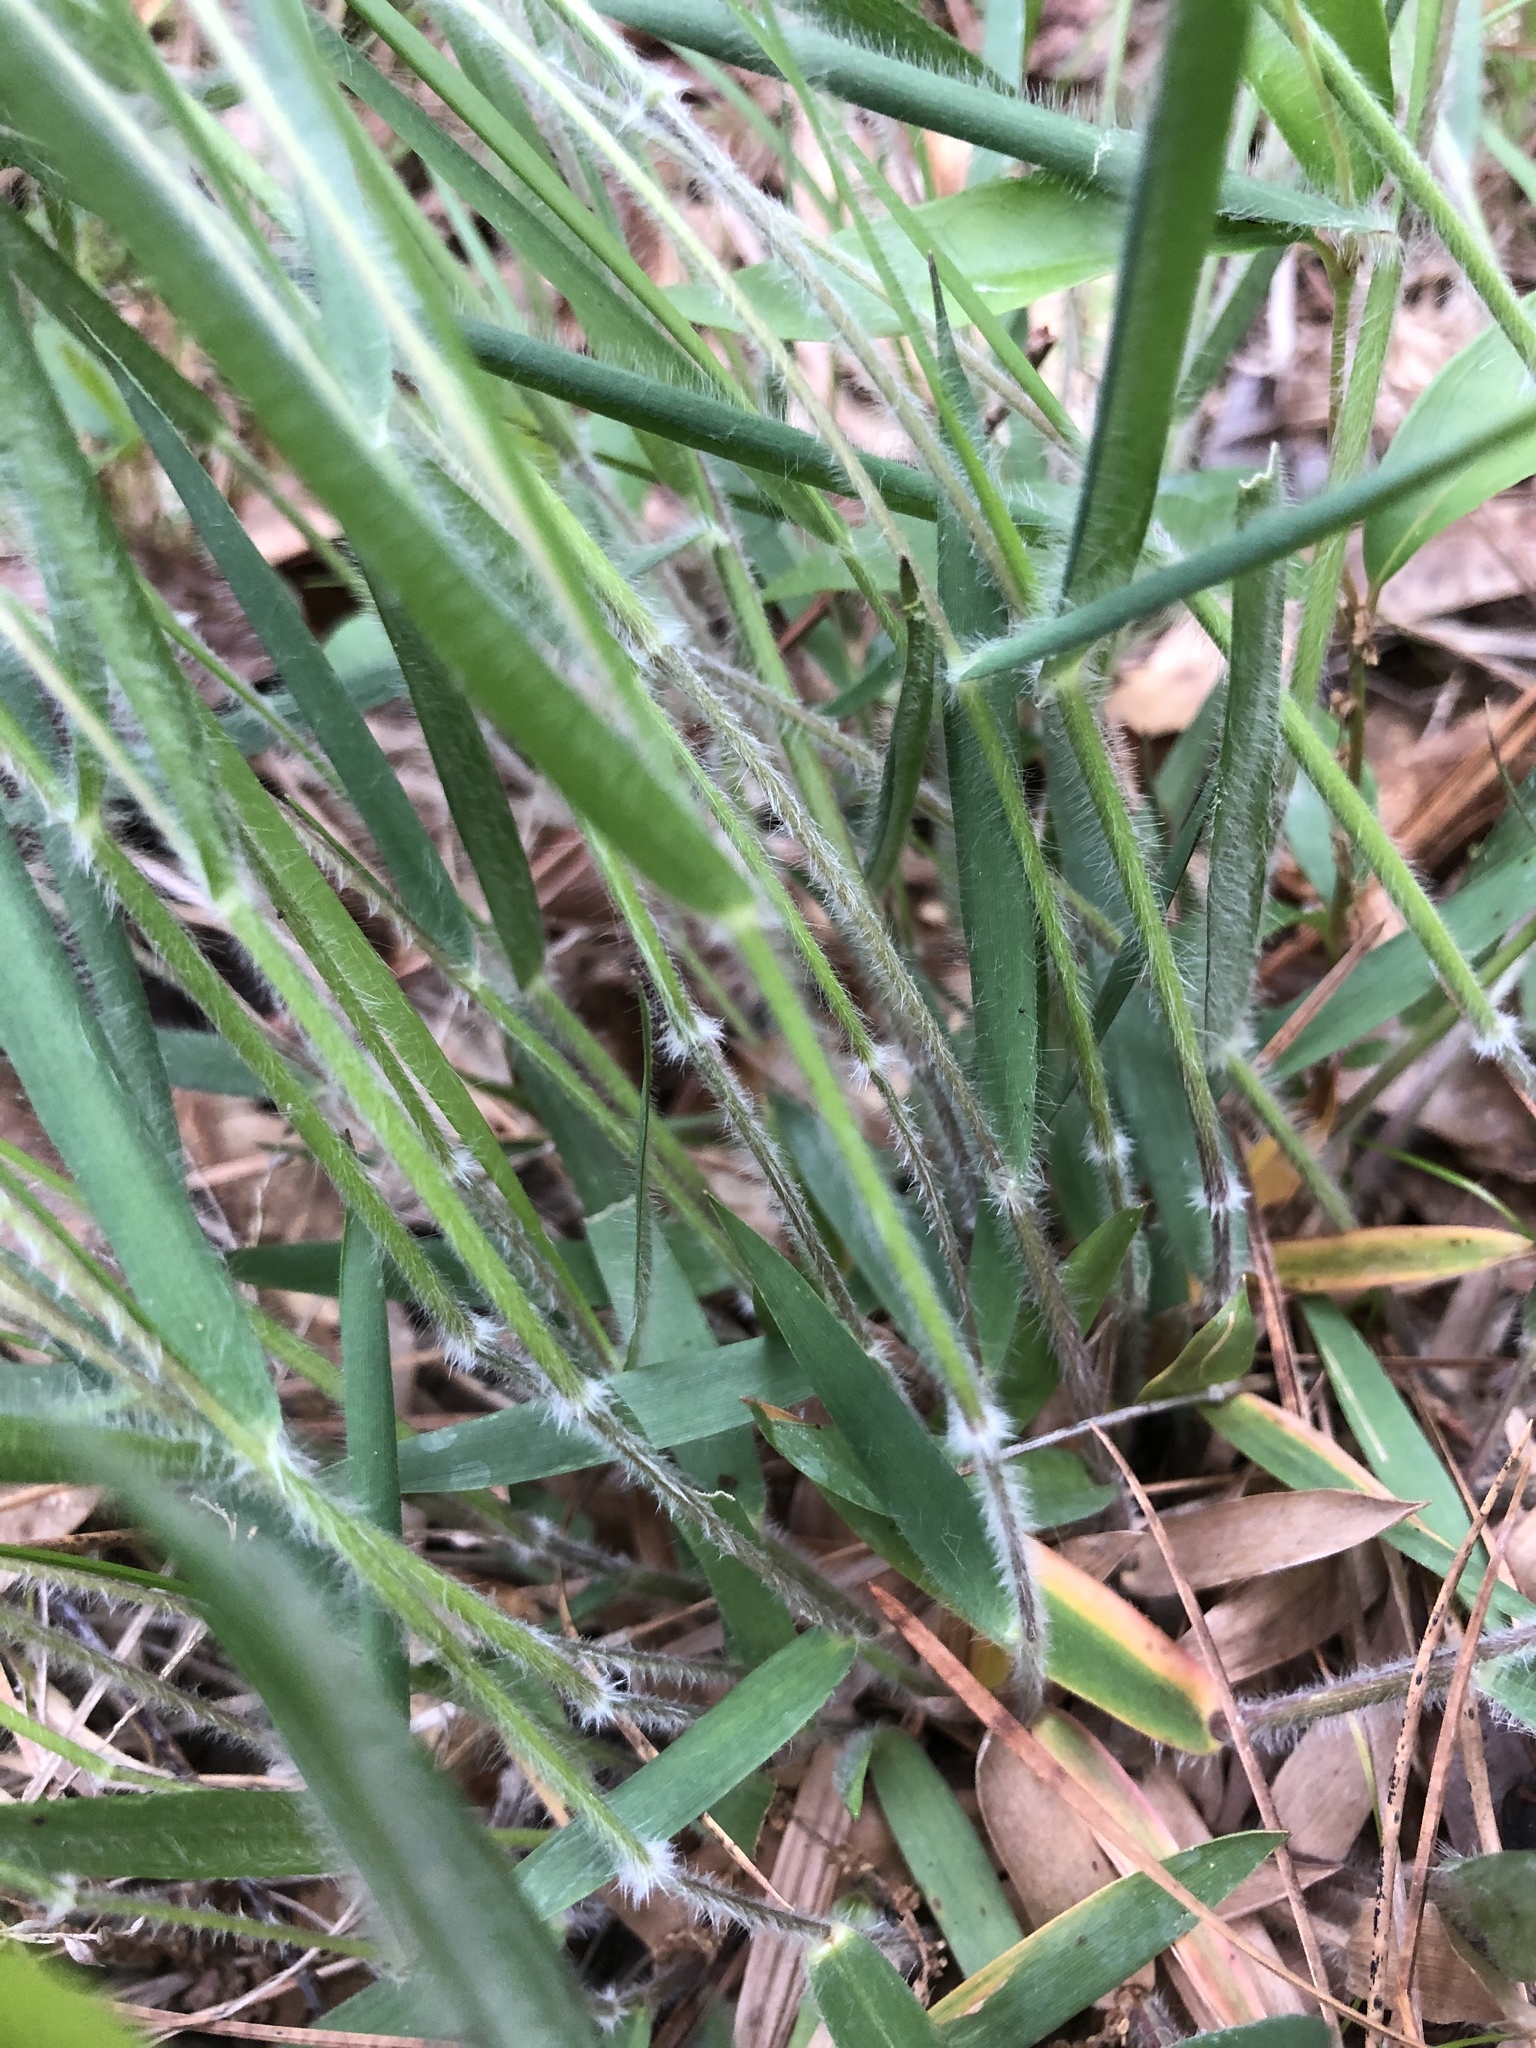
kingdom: Plantae
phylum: Tracheophyta
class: Liliopsida
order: Poales
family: Poaceae
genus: Dichanthelium
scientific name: Dichanthelium consanguineum
